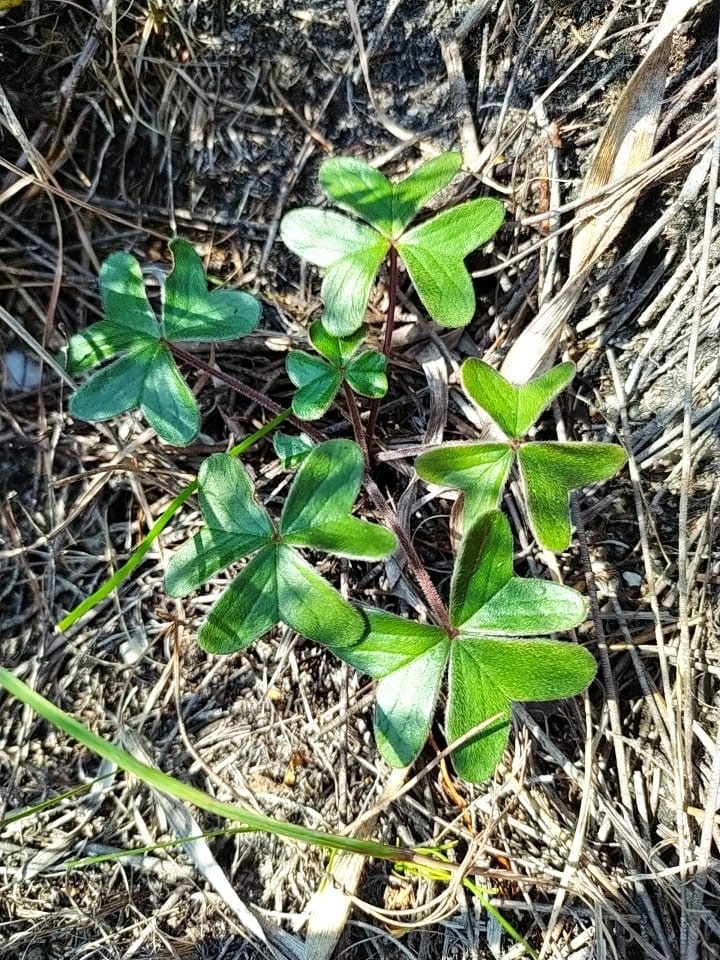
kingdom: Plantae
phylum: Tracheophyta
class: Magnoliopsida
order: Oxalidales
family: Oxalidaceae
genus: Oxalis
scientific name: Oxalis truncatula
